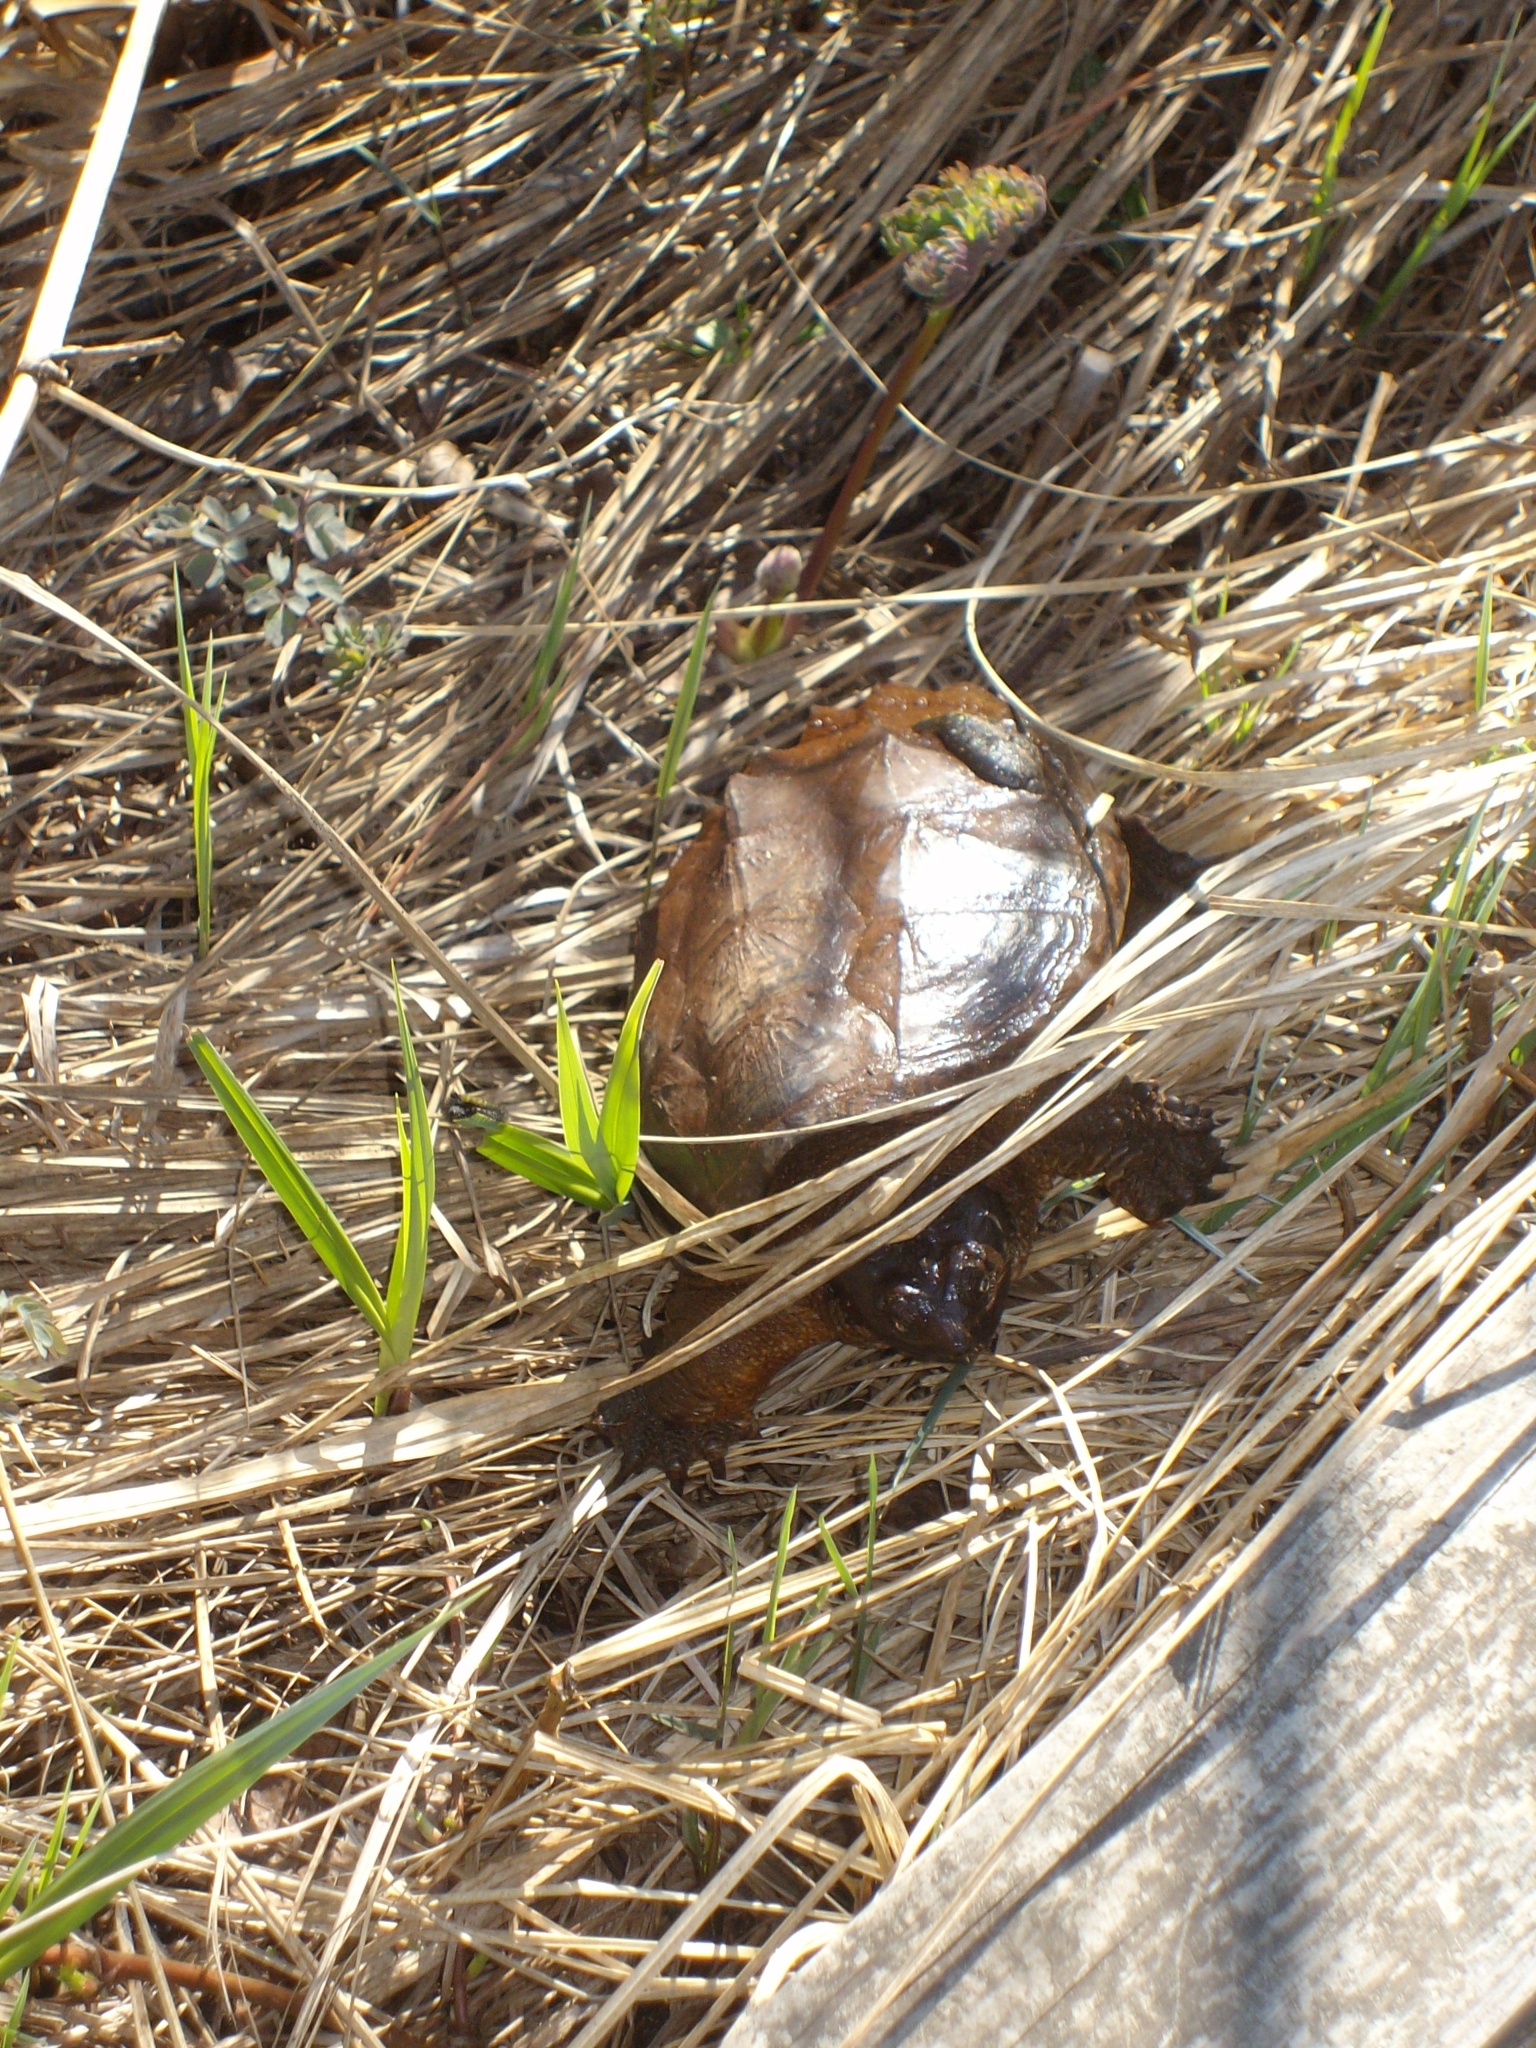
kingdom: Animalia
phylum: Chordata
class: Testudines
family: Chelydridae
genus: Chelydra
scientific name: Chelydra serpentina
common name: Common snapping turtle
